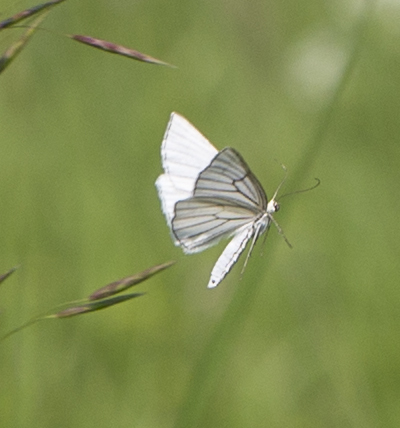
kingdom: Animalia
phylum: Arthropoda
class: Insecta
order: Lepidoptera
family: Geometridae
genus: Siona
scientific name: Siona lineata
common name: Black-veined moth
